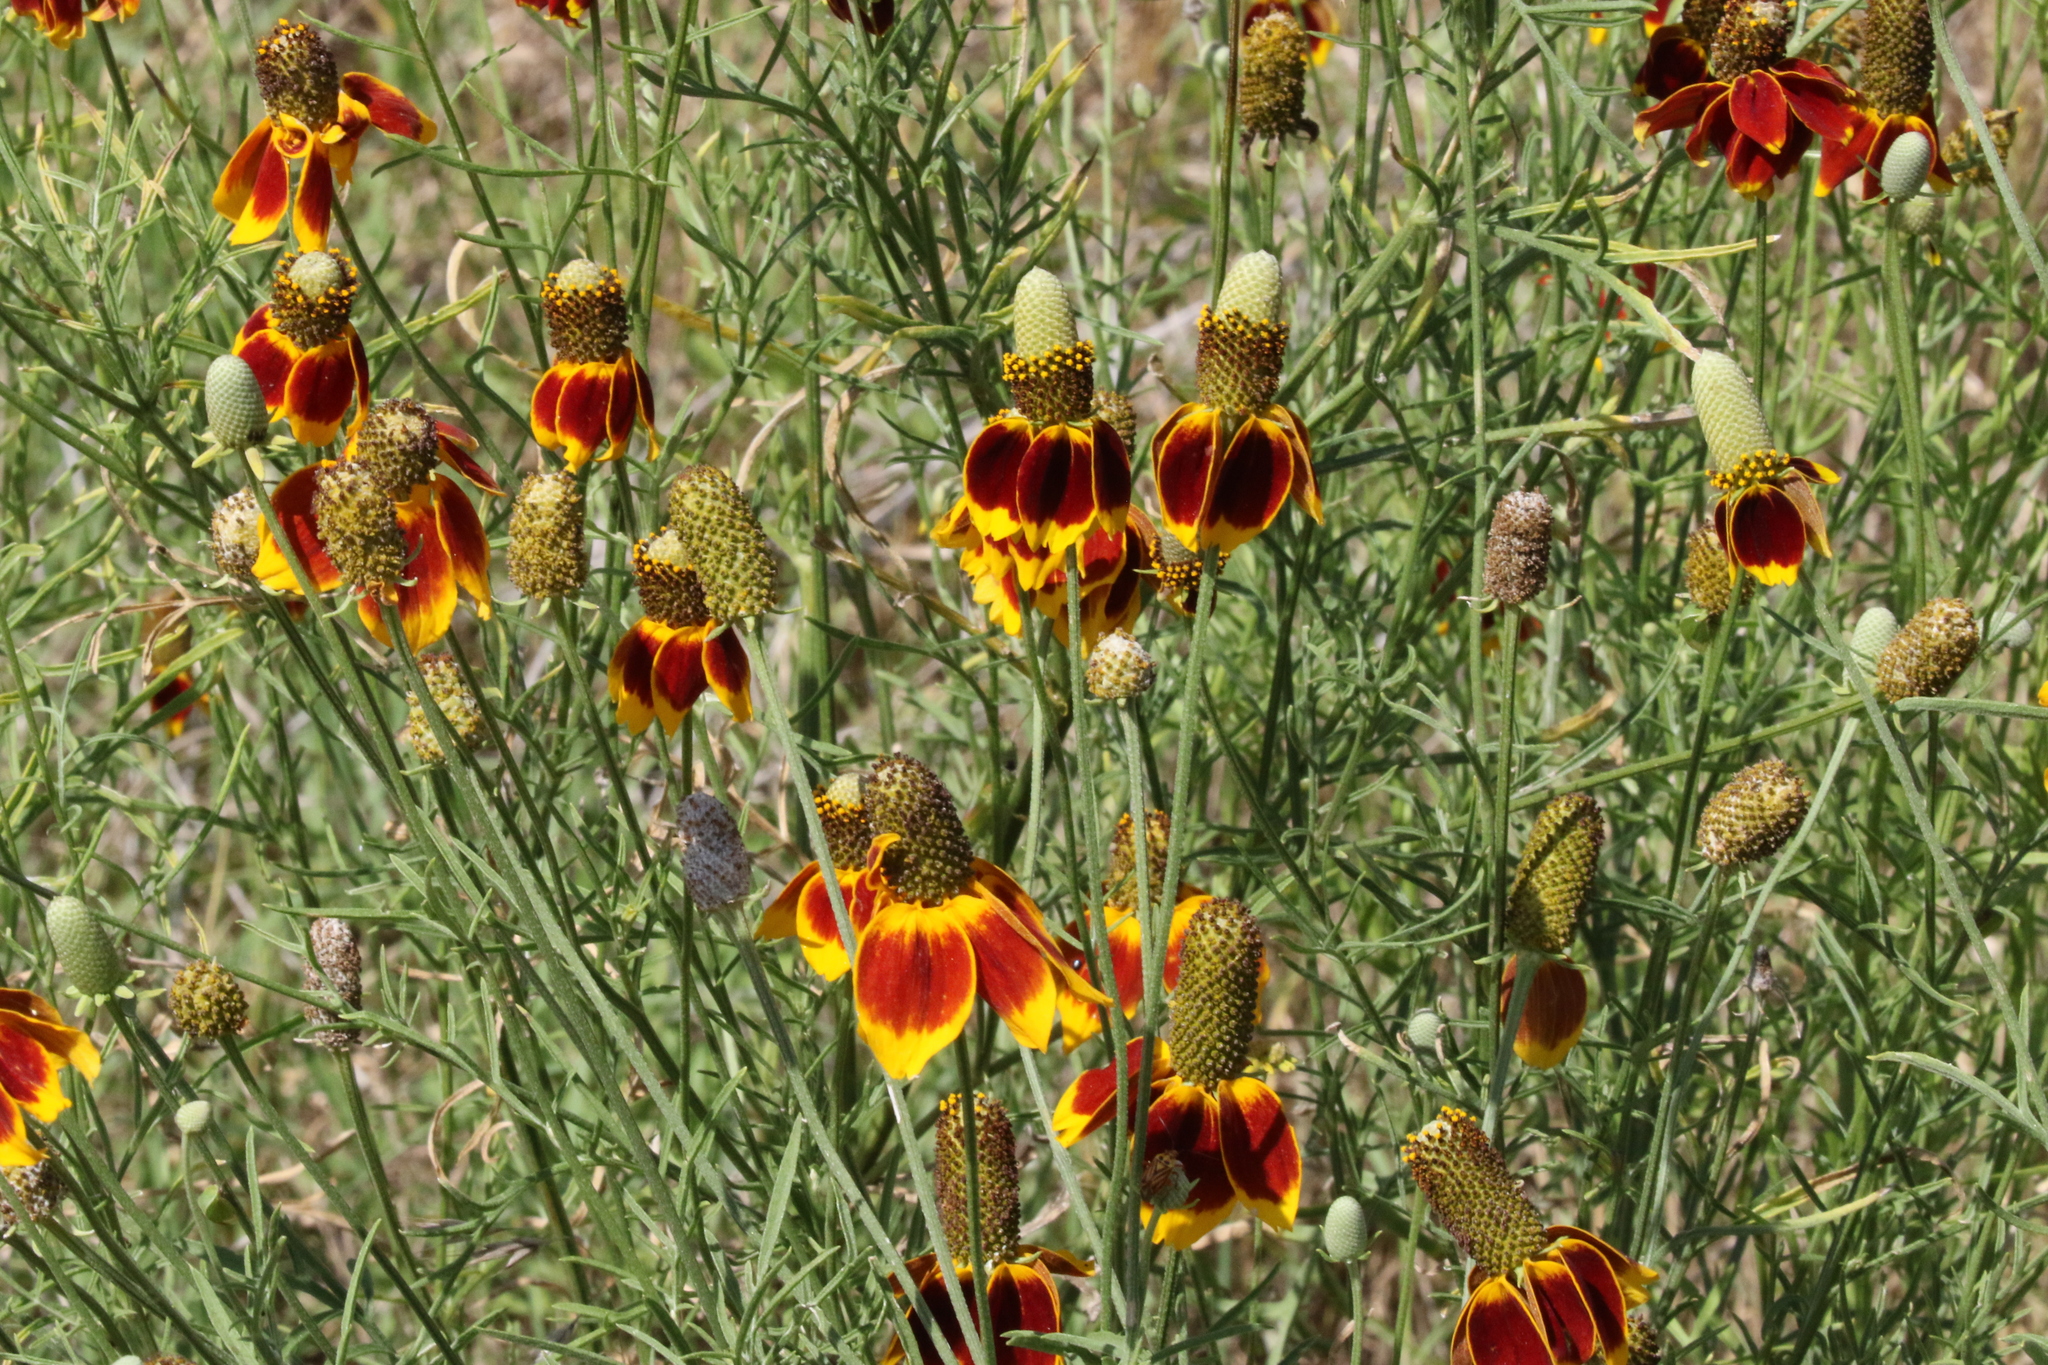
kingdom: Plantae
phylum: Tracheophyta
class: Magnoliopsida
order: Asterales
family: Asteraceae
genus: Ratibida
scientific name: Ratibida columnifera
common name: Prairie coneflower
